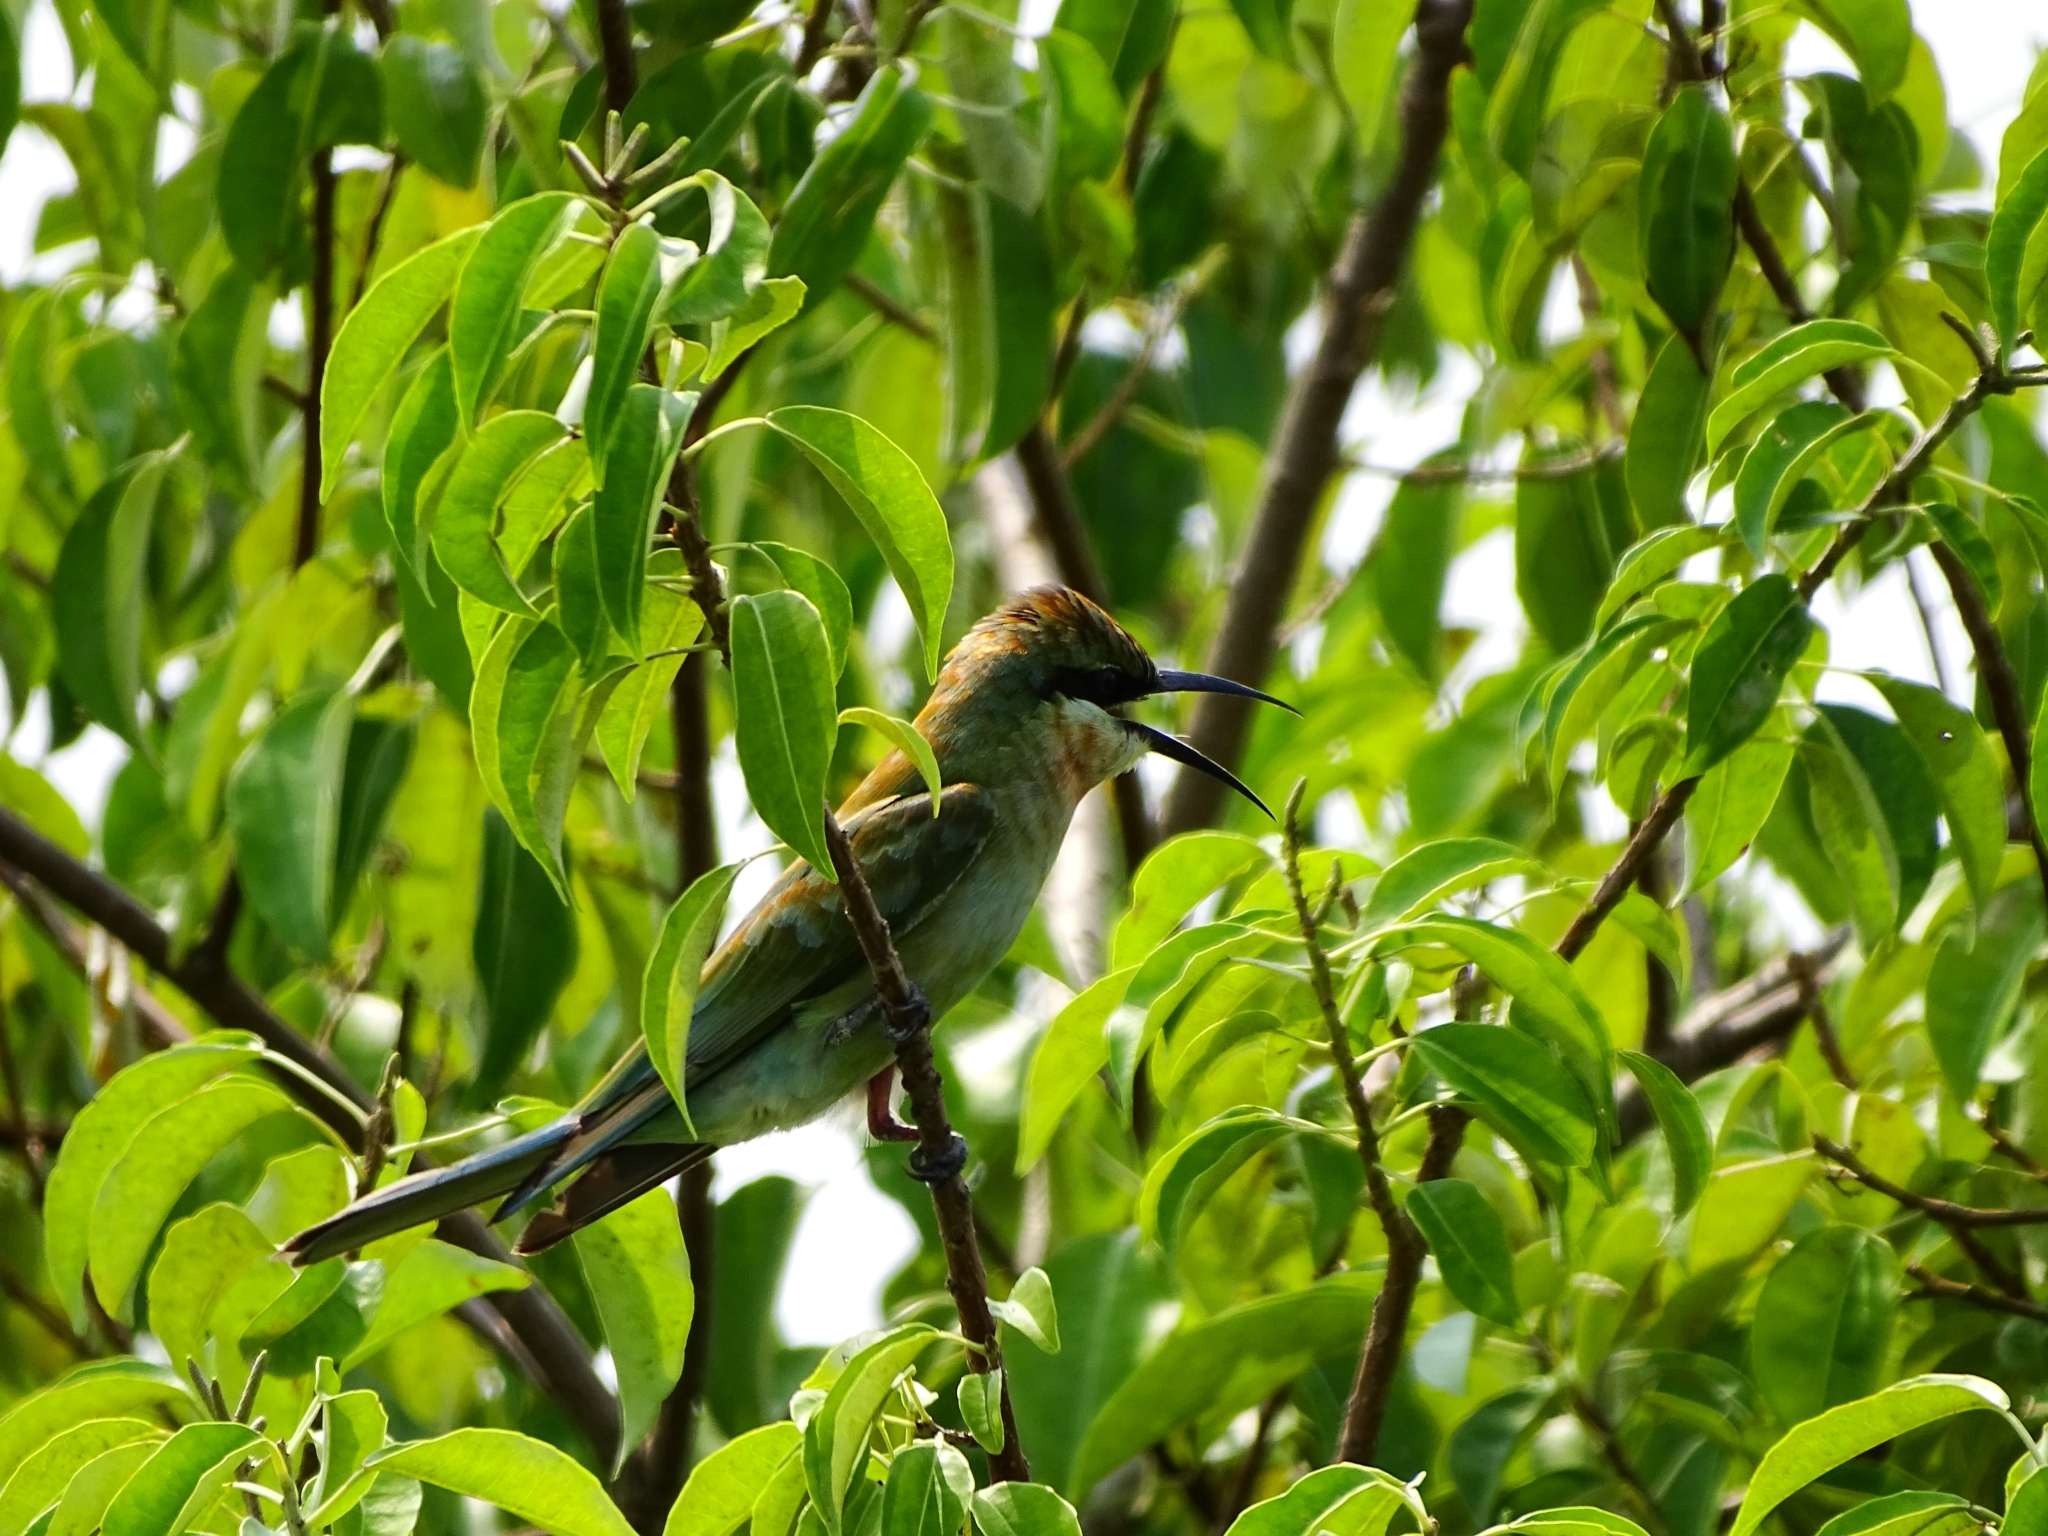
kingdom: Animalia
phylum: Chordata
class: Aves
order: Coraciiformes
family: Meropidae
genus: Merops
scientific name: Merops philippinus
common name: Blue-tailed bee-eater
